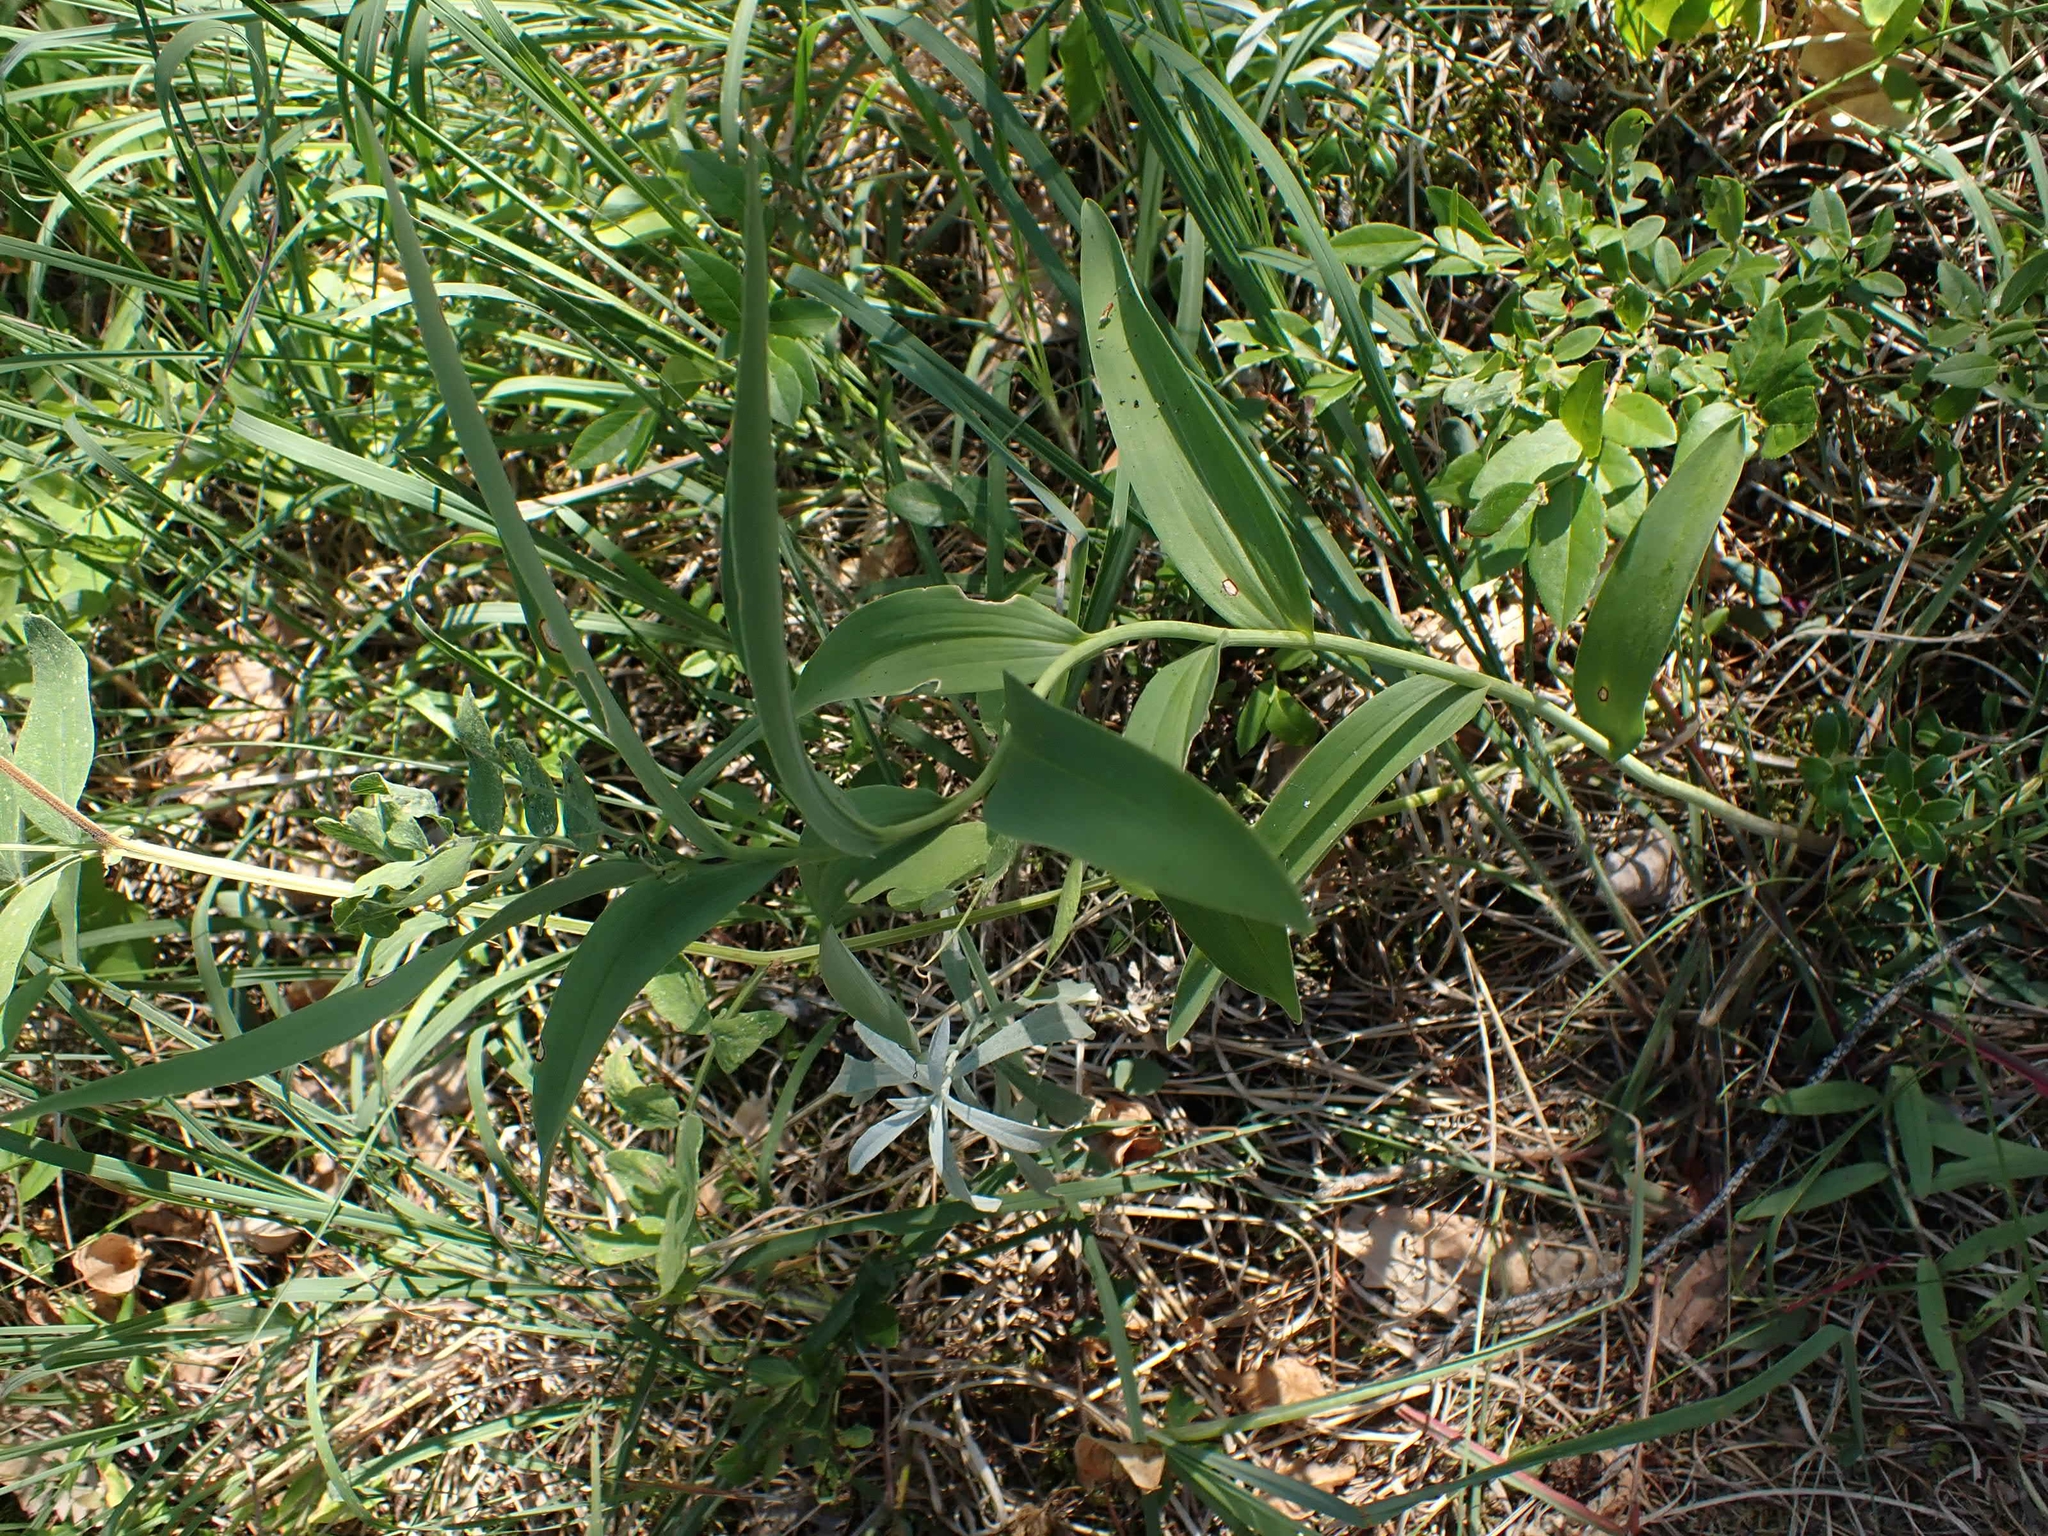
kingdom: Plantae
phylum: Tracheophyta
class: Liliopsida
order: Asparagales
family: Asparagaceae
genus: Maianthemum
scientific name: Maianthemum stellatum
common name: Little false solomon's seal
